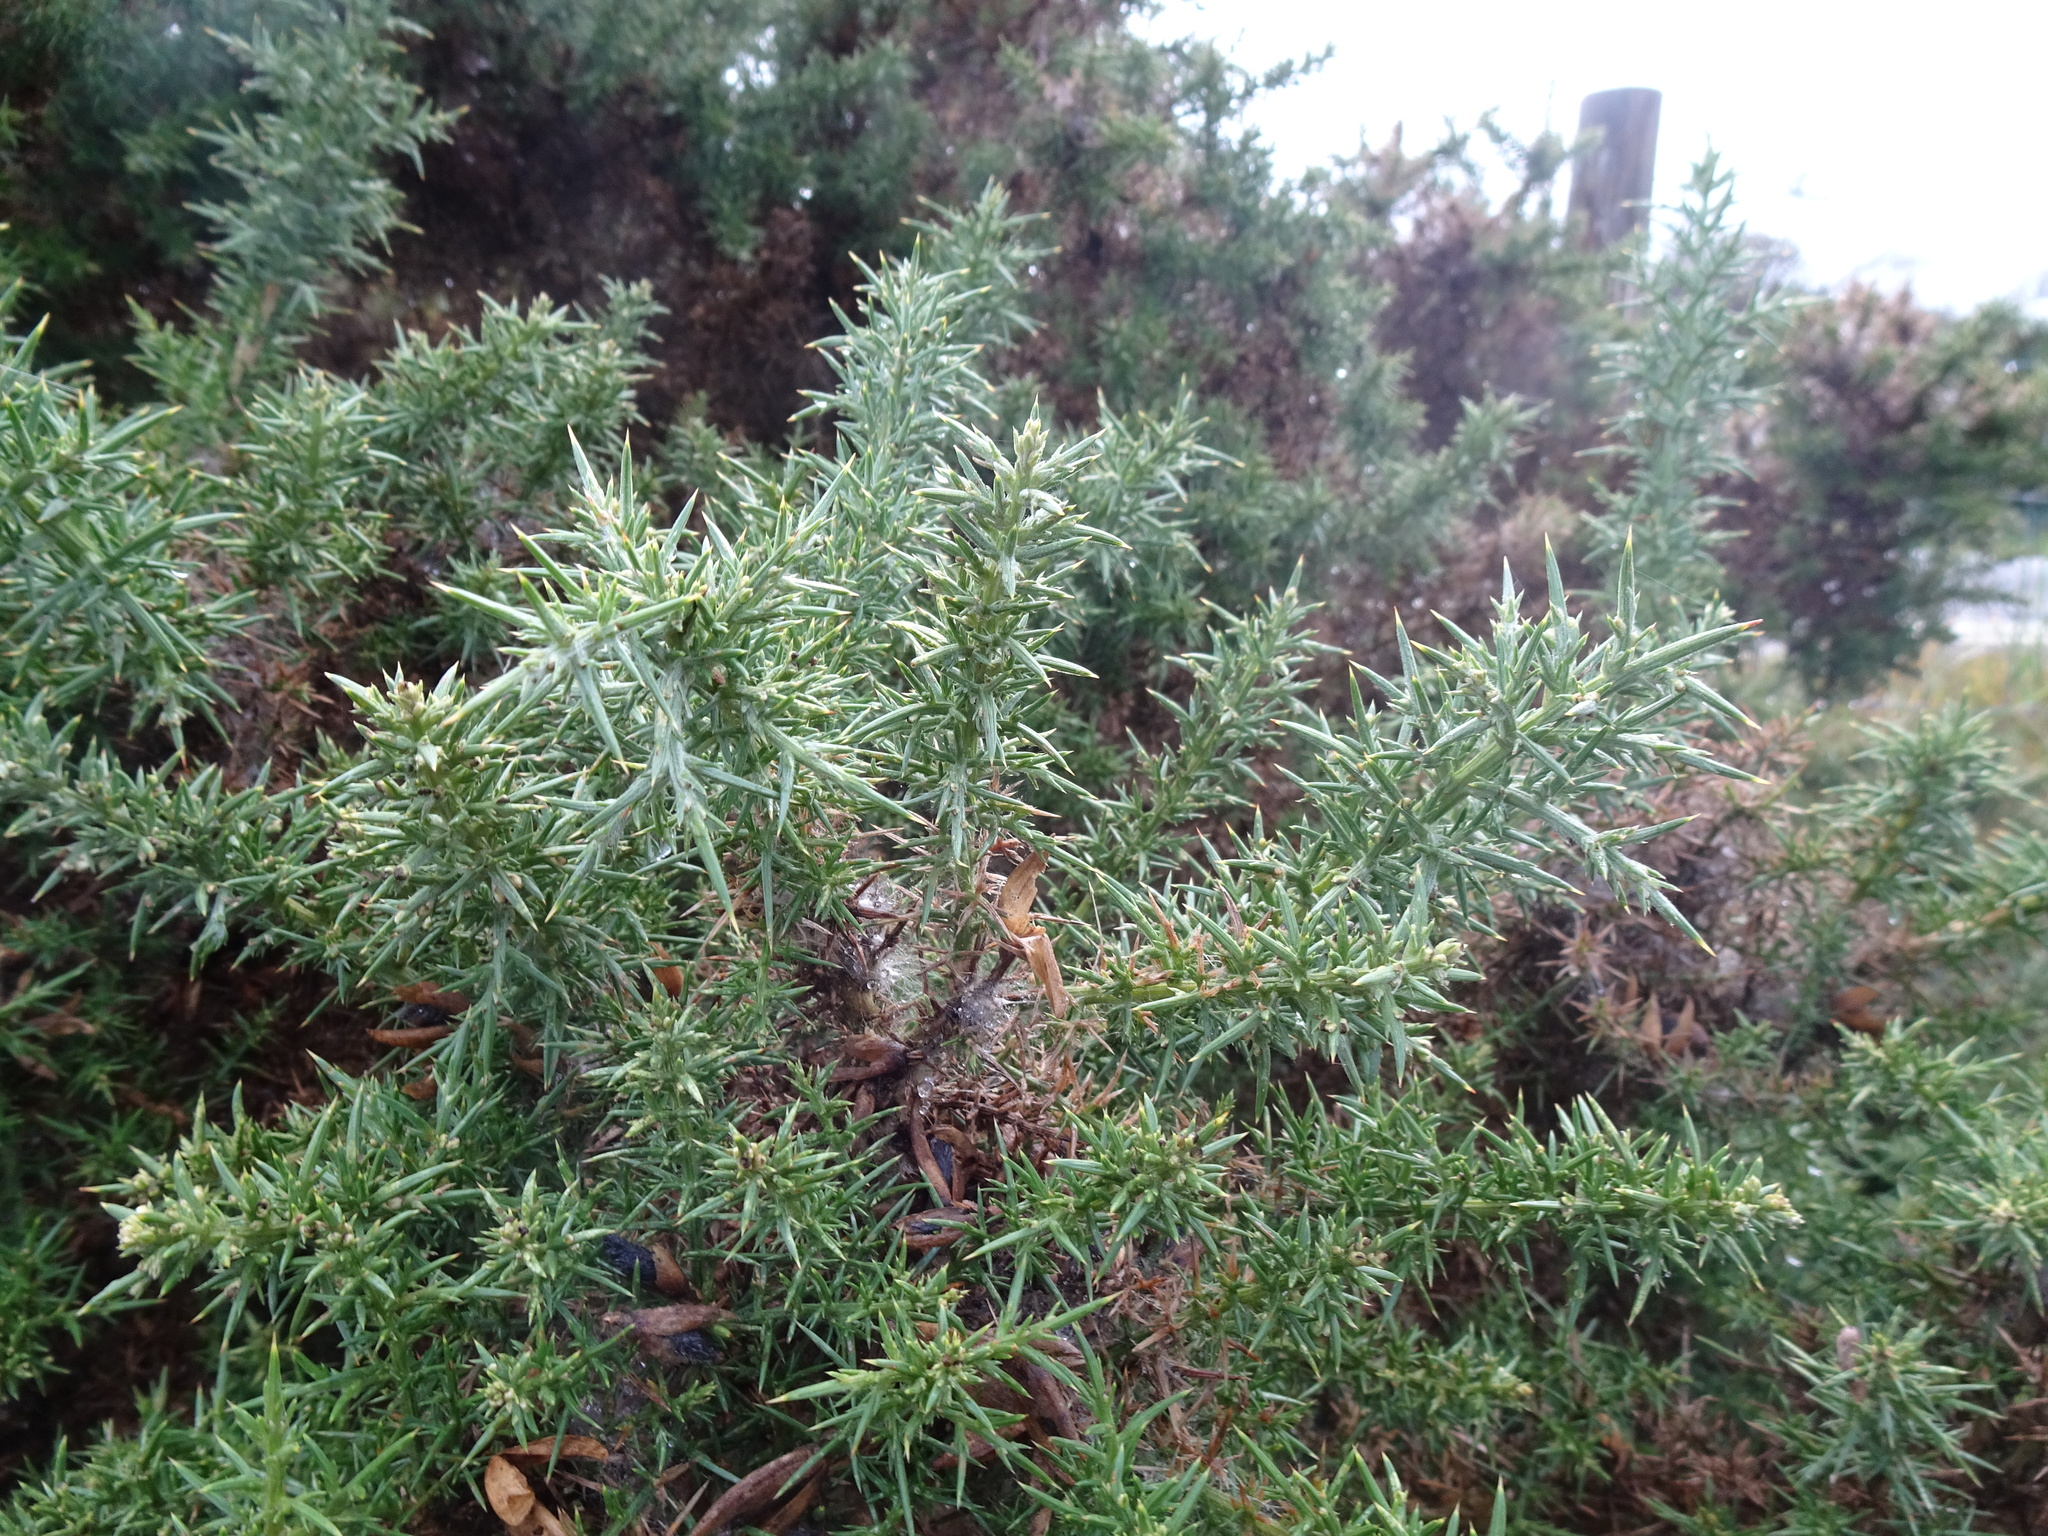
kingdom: Plantae
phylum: Tracheophyta
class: Magnoliopsida
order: Fabales
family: Fabaceae
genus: Ulex
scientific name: Ulex europaeus
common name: Common gorse
